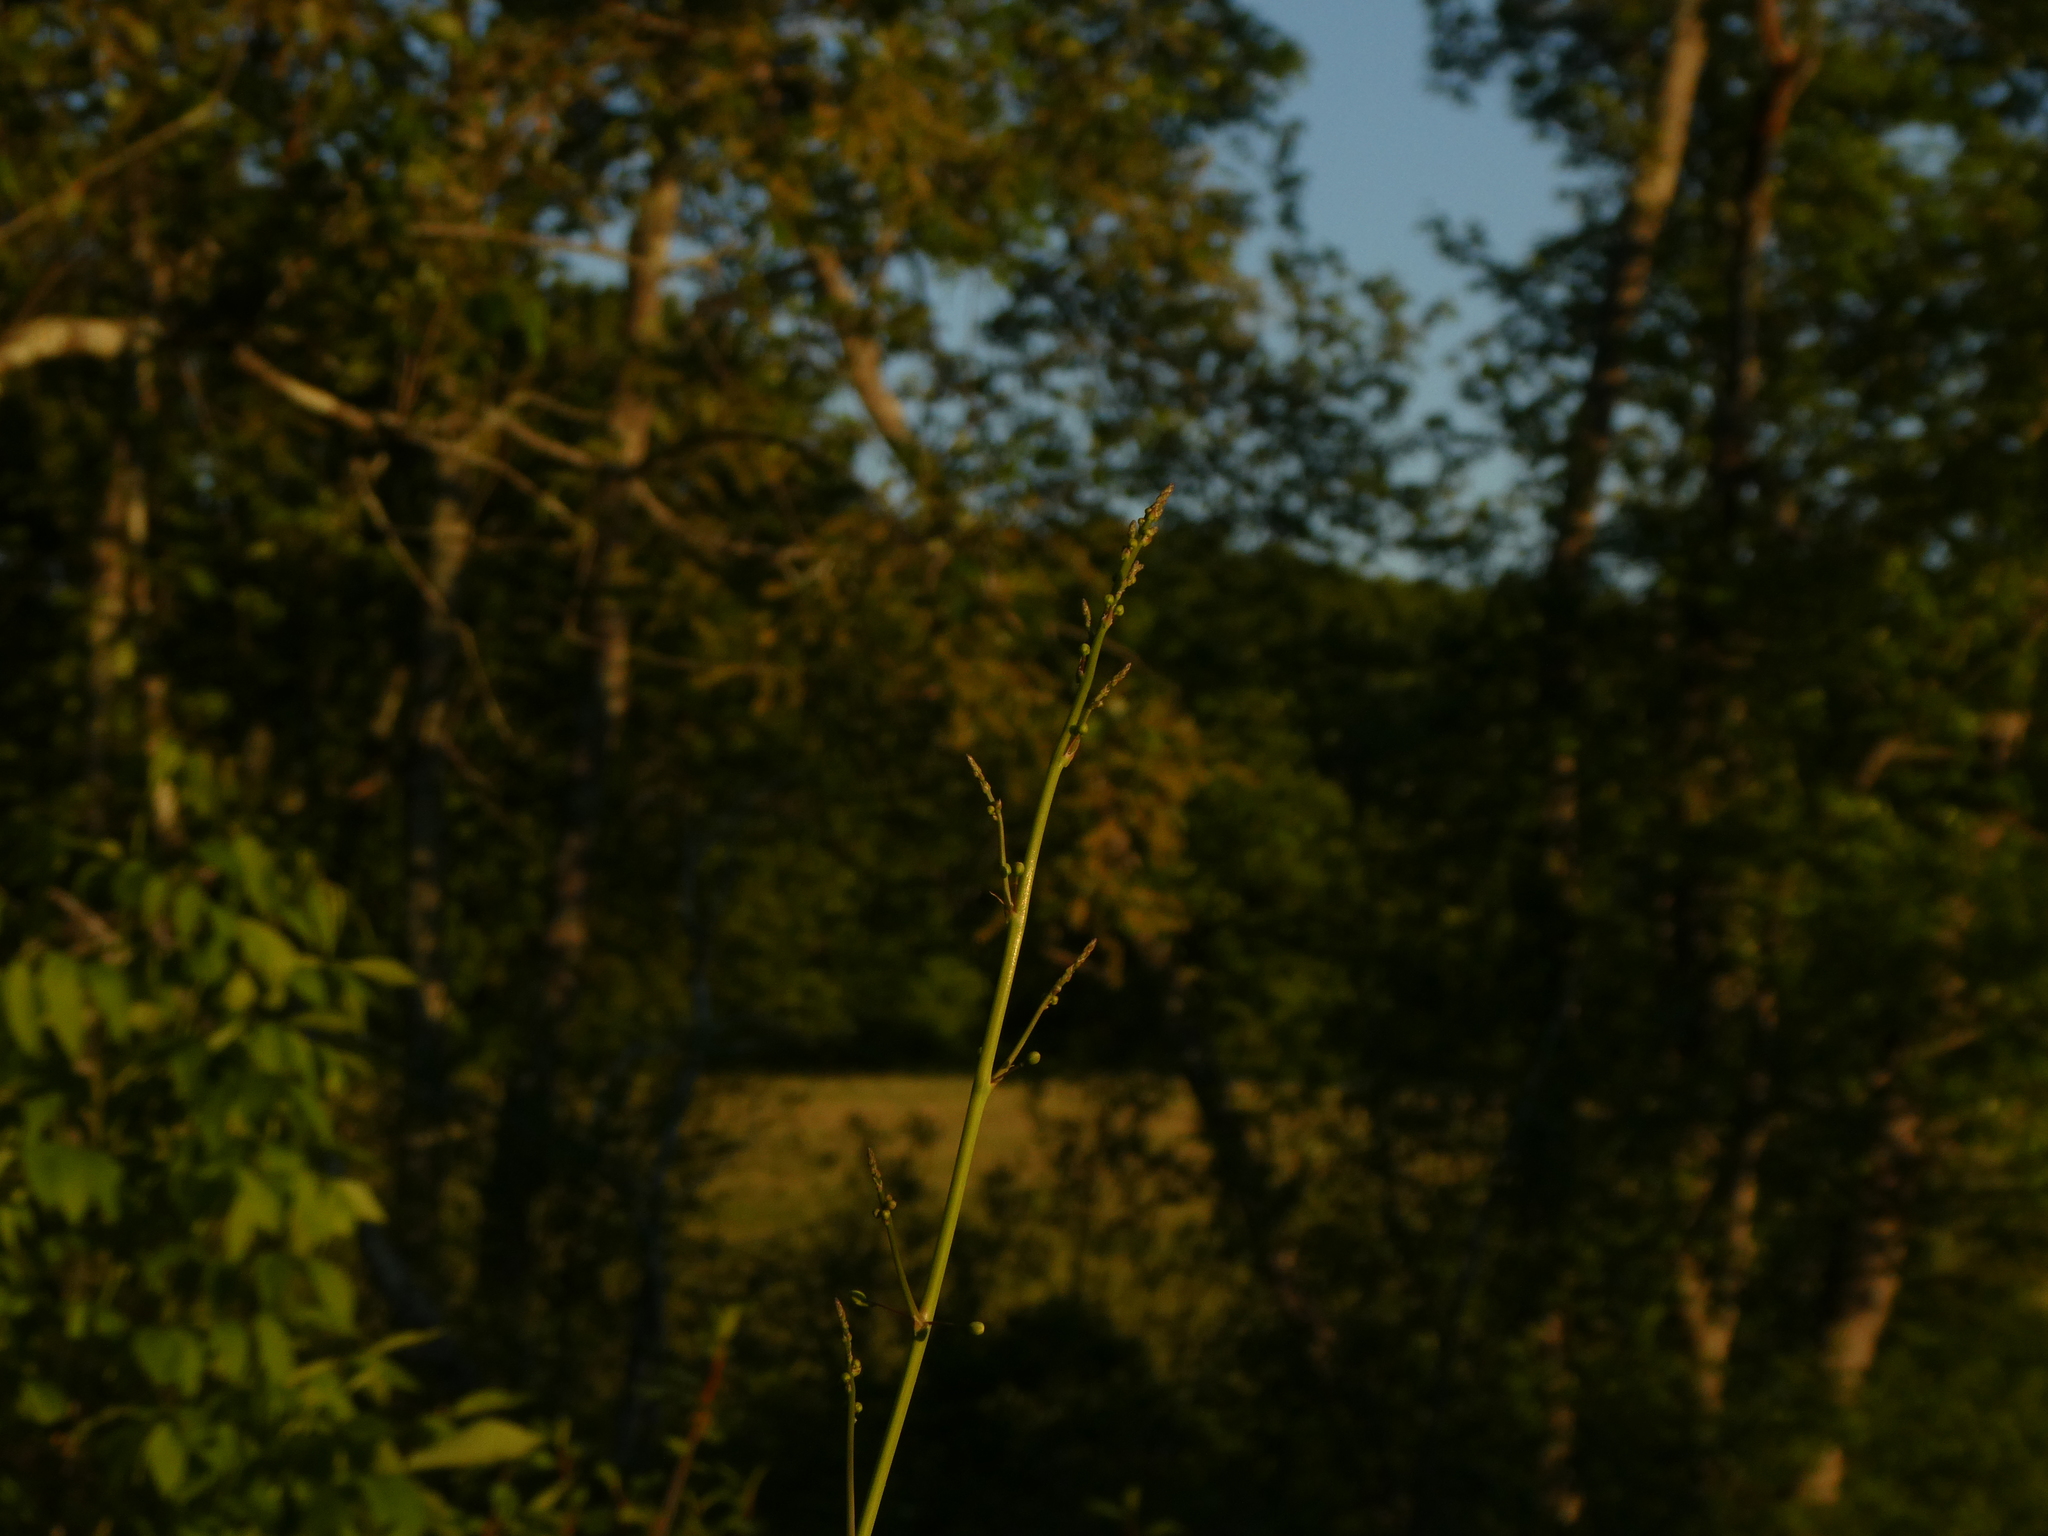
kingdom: Plantae
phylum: Tracheophyta
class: Liliopsida
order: Asparagales
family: Asparagaceae
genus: Asparagus
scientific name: Asparagus officinalis
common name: Garden asparagus
